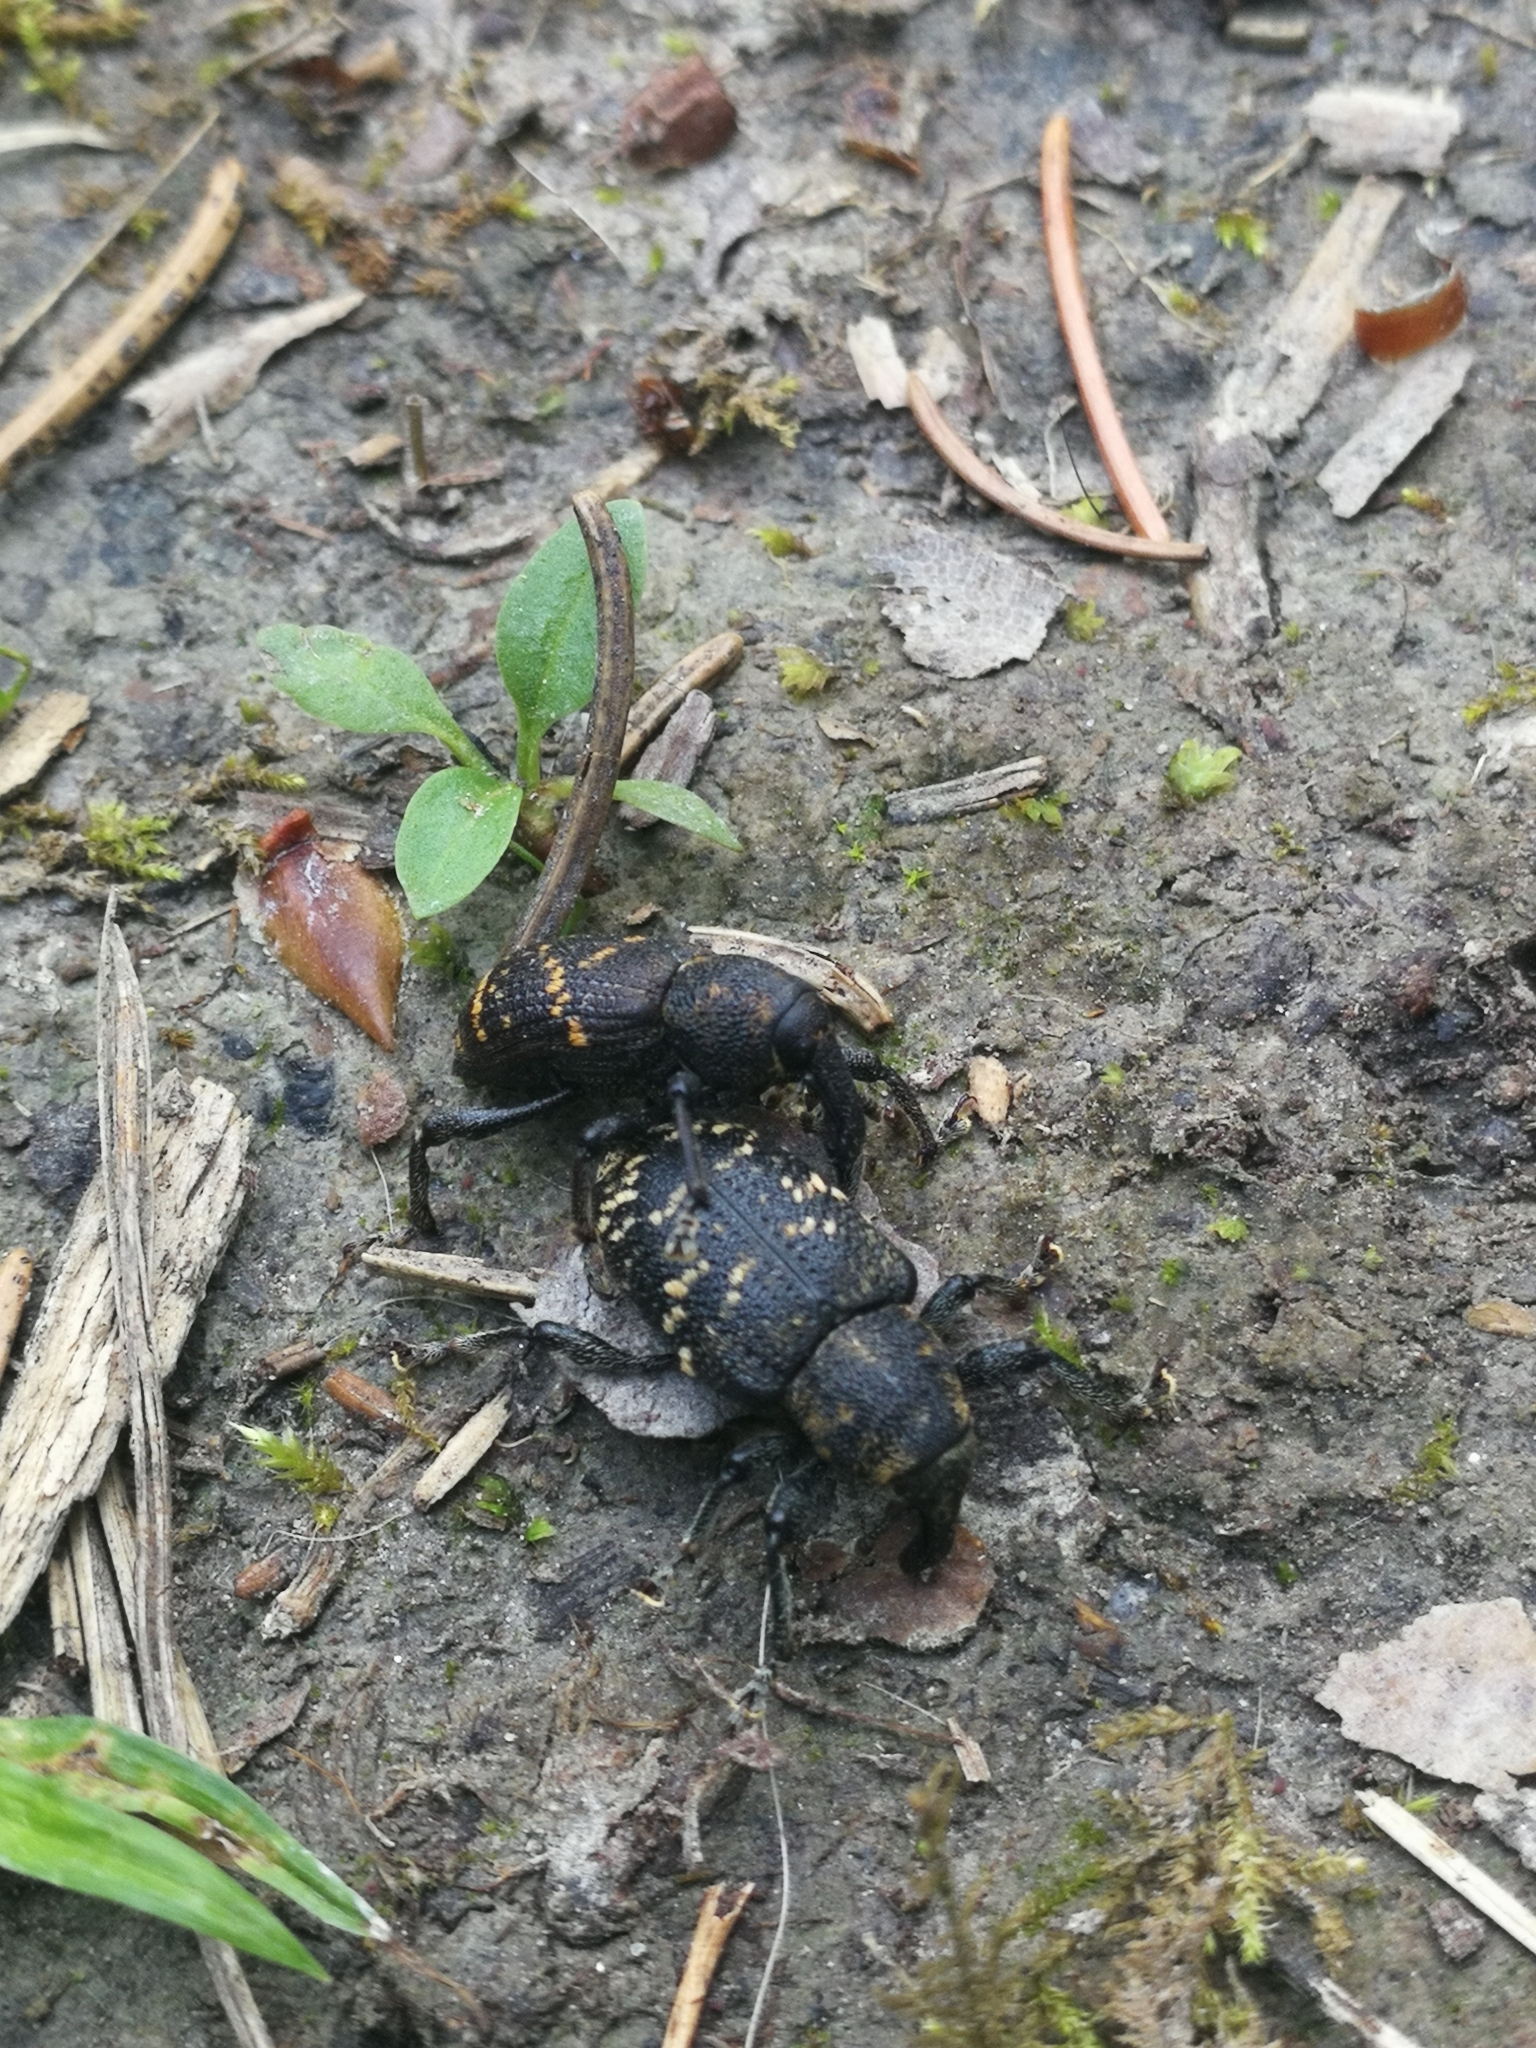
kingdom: Animalia
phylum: Arthropoda
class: Insecta
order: Coleoptera
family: Curculionidae
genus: Hylobius
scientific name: Hylobius abietis
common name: Large pine weevil
